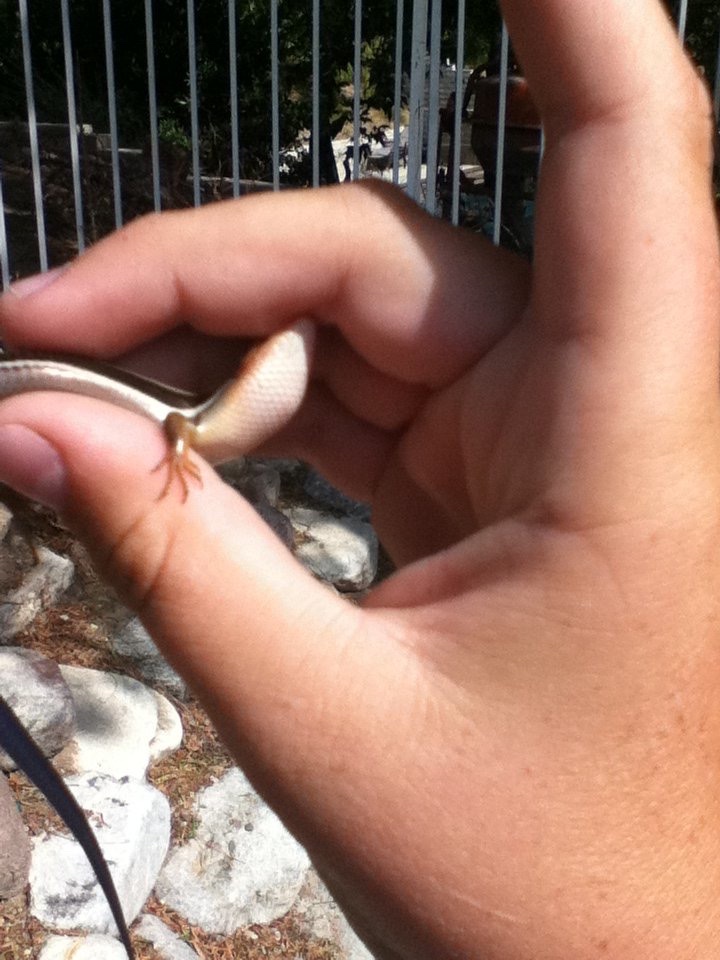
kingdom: Animalia
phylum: Chordata
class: Squamata
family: Scincidae
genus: Plestiodon
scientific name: Plestiodon skiltonianus
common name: Coronado island skink [interparietalis]
